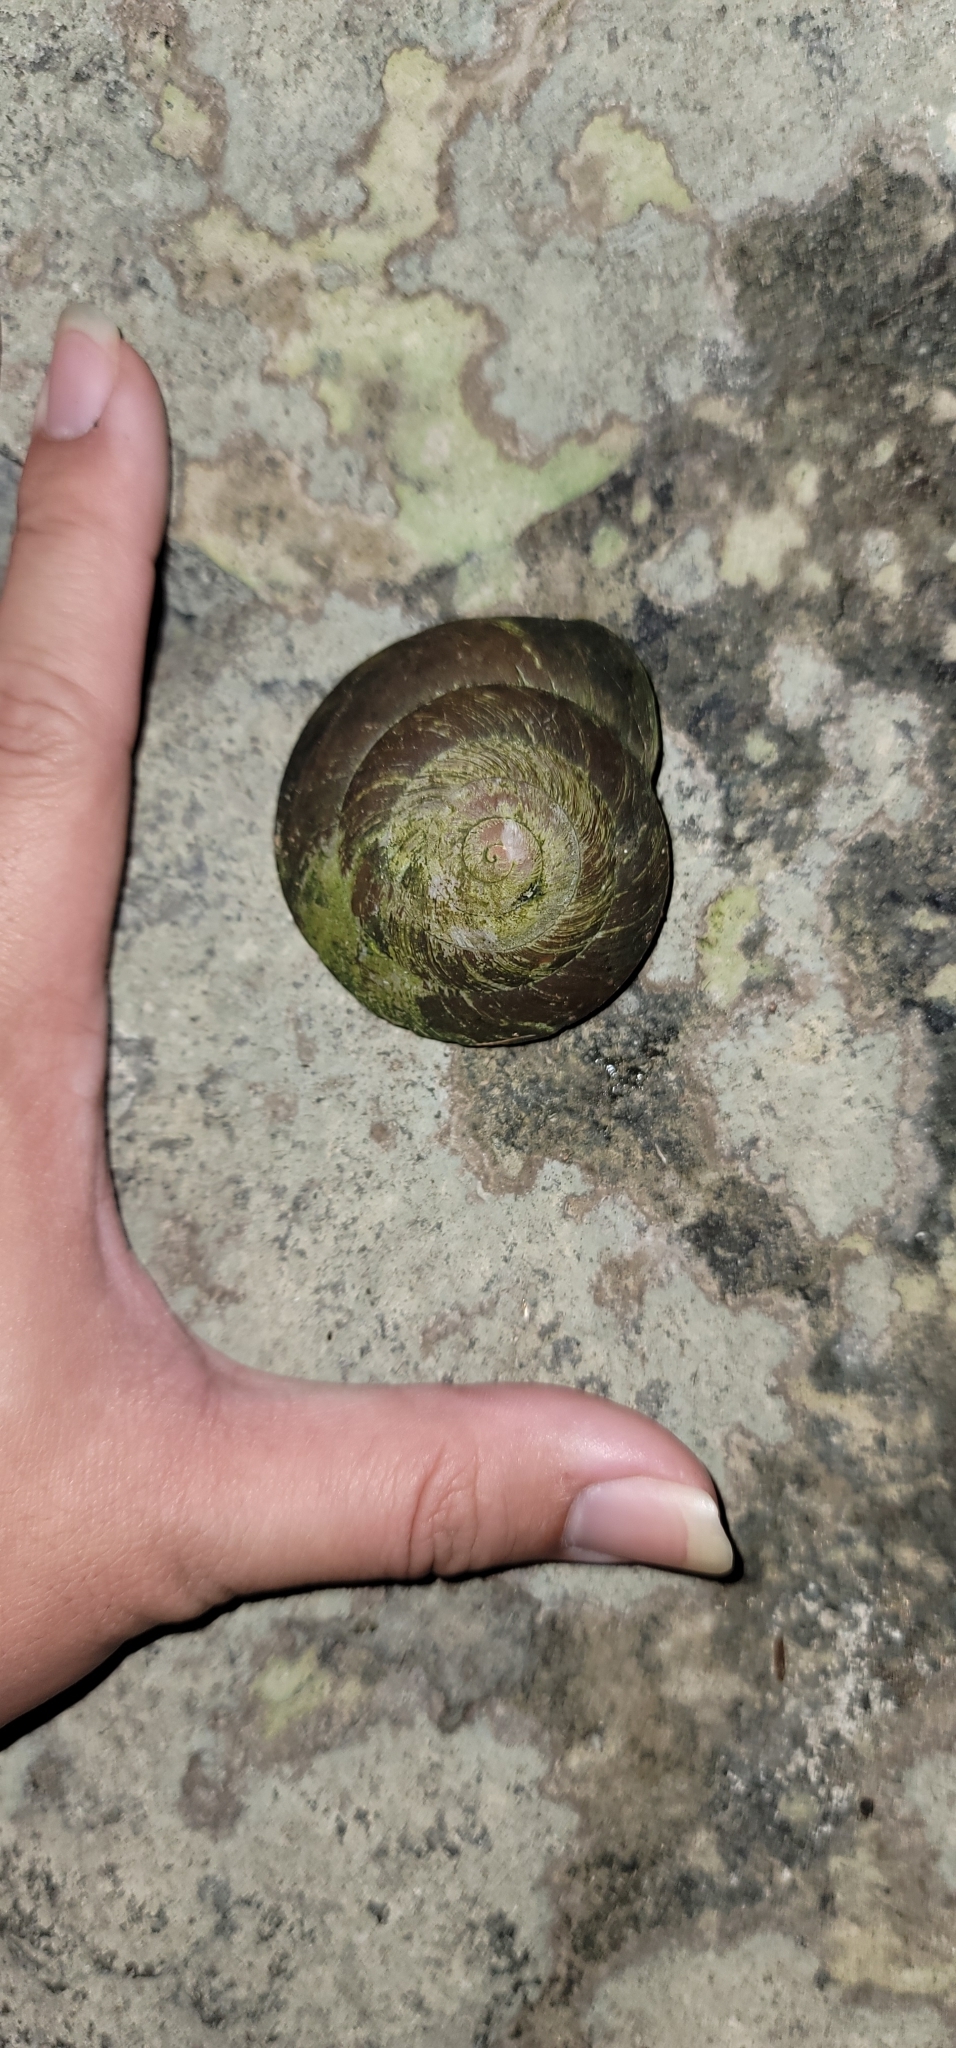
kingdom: Animalia
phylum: Mollusca
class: Gastropoda
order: Stylommatophora
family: Solaropsidae
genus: Caracolus
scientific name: Caracolus carocolla
